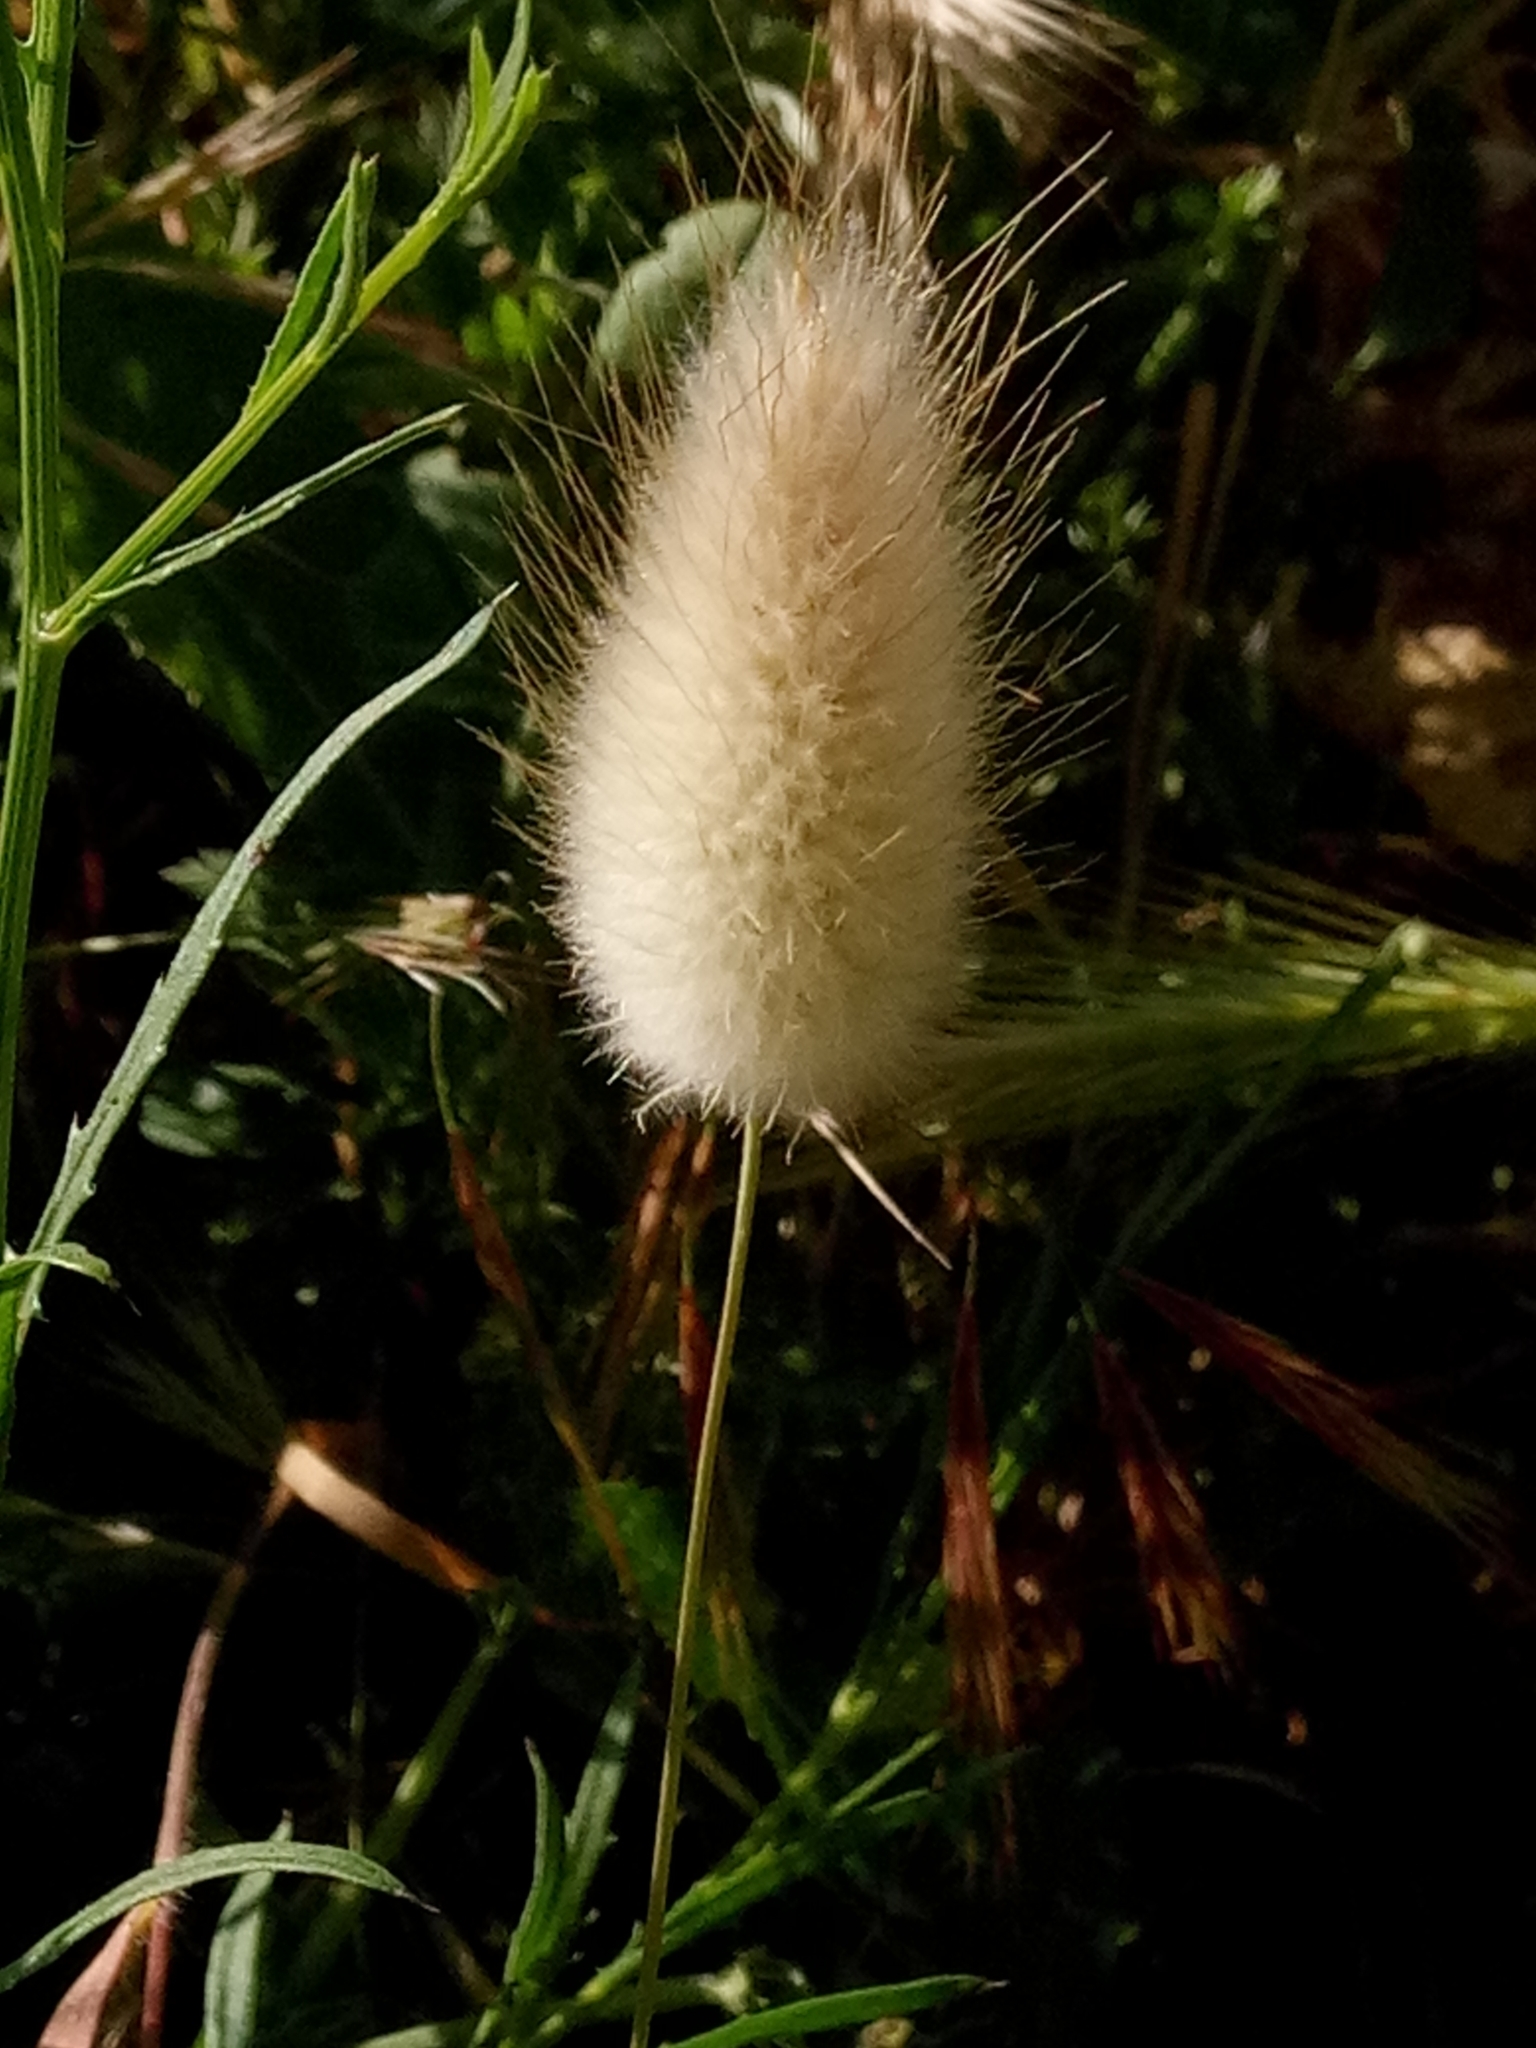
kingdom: Plantae
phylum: Tracheophyta
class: Liliopsida
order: Poales
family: Poaceae
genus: Lagurus
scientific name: Lagurus ovatus
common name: Hare's-tail
